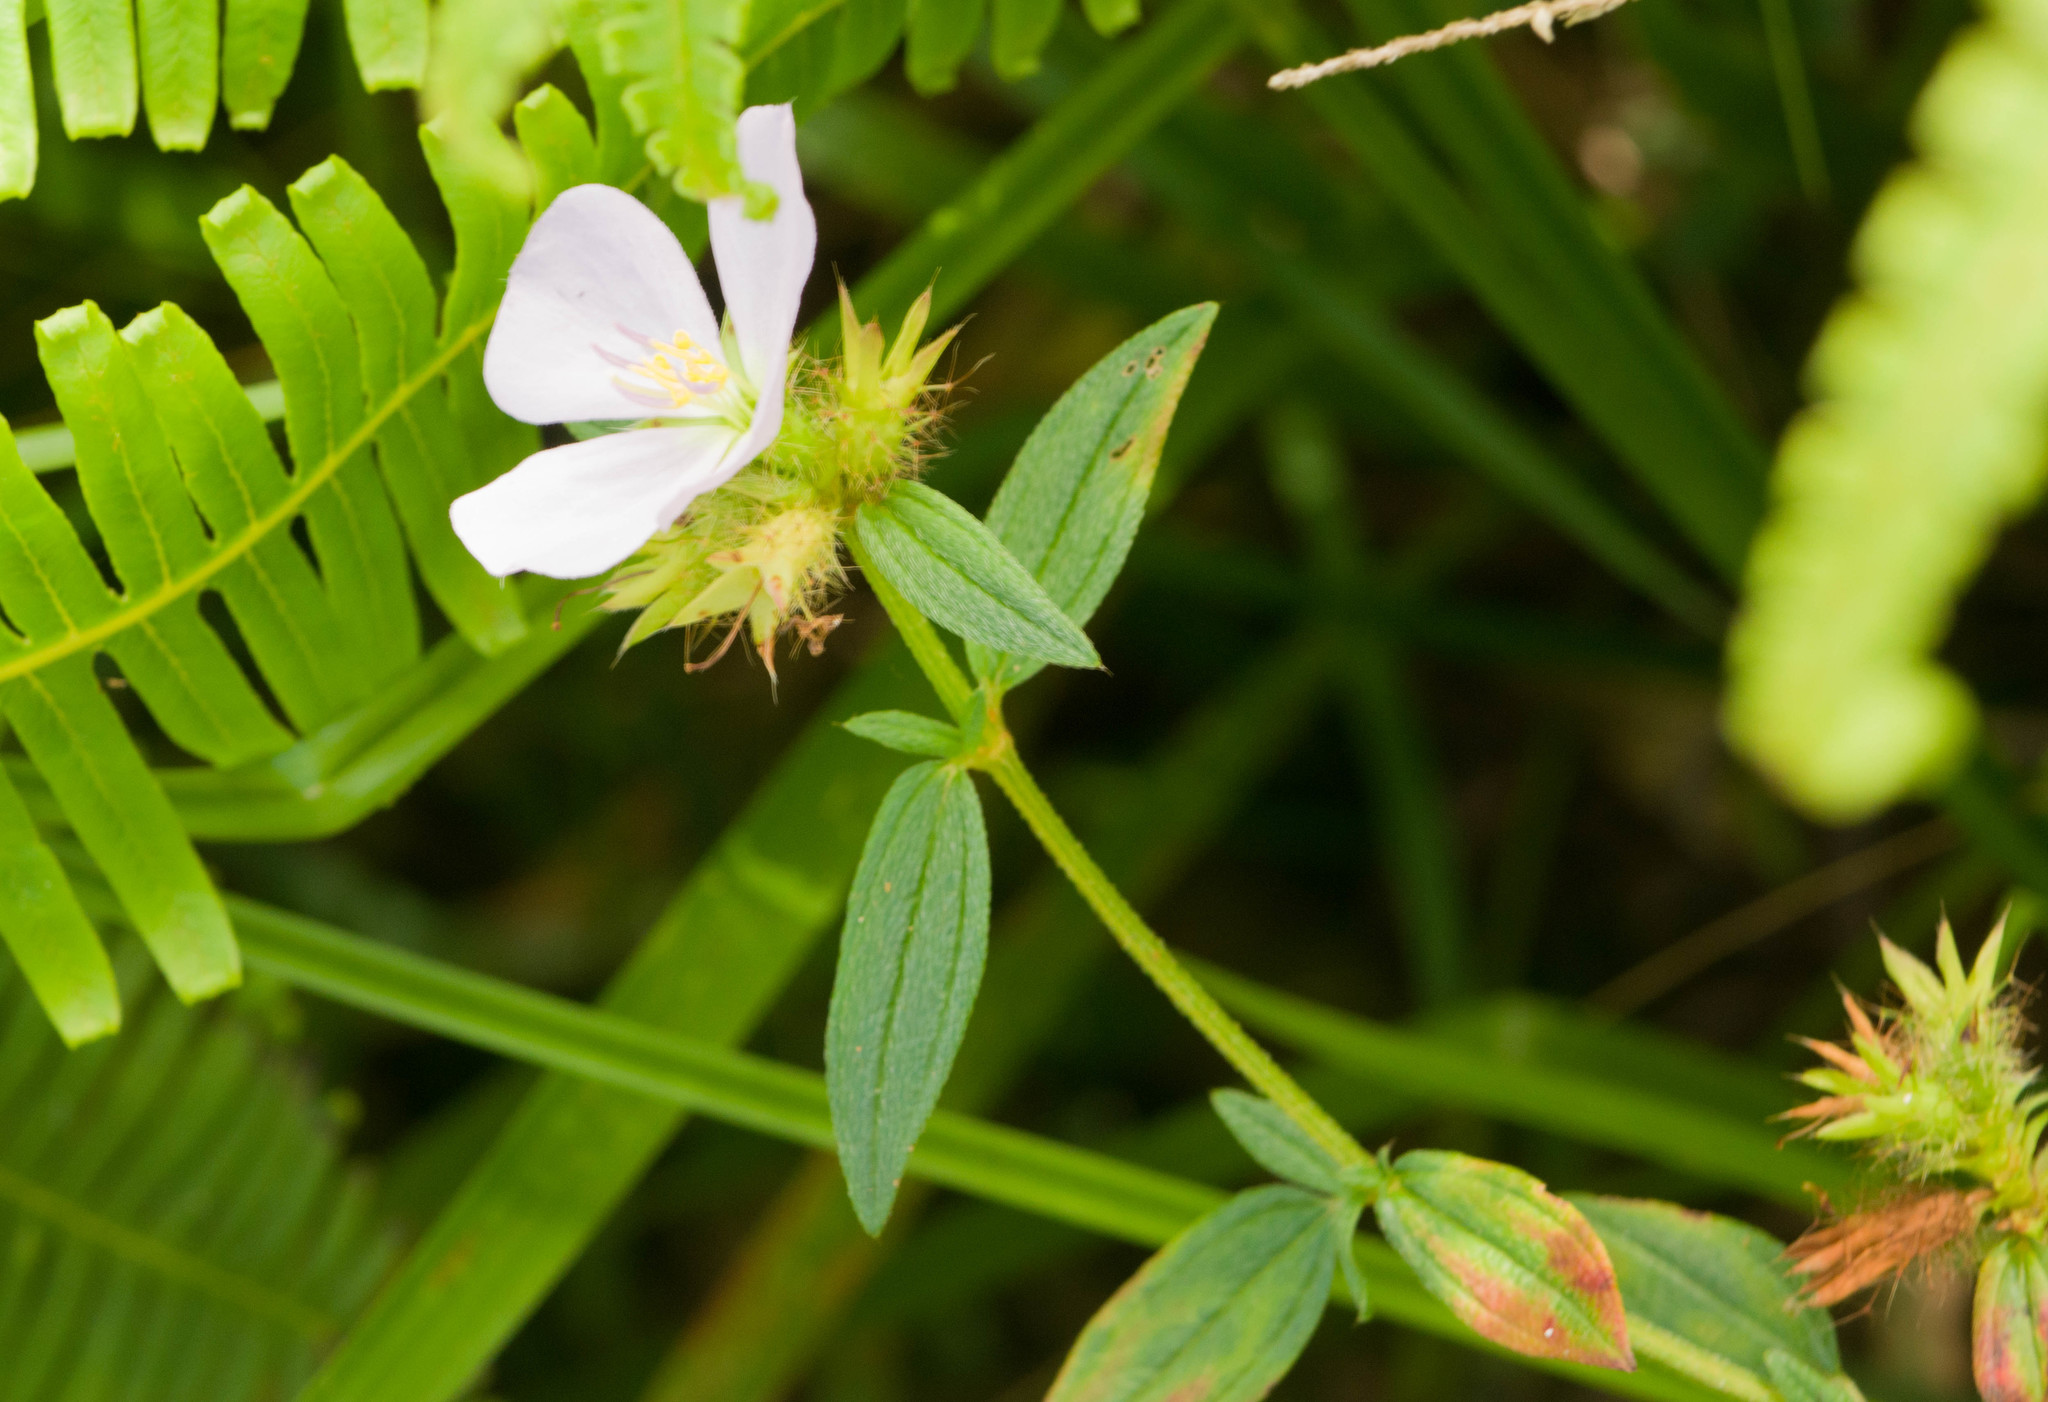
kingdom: Plantae
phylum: Tracheophyta
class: Magnoliopsida
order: Myrtales
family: Melastomataceae
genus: Pterolepis
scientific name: Pterolepis glomerata
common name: False meadowbeauty
